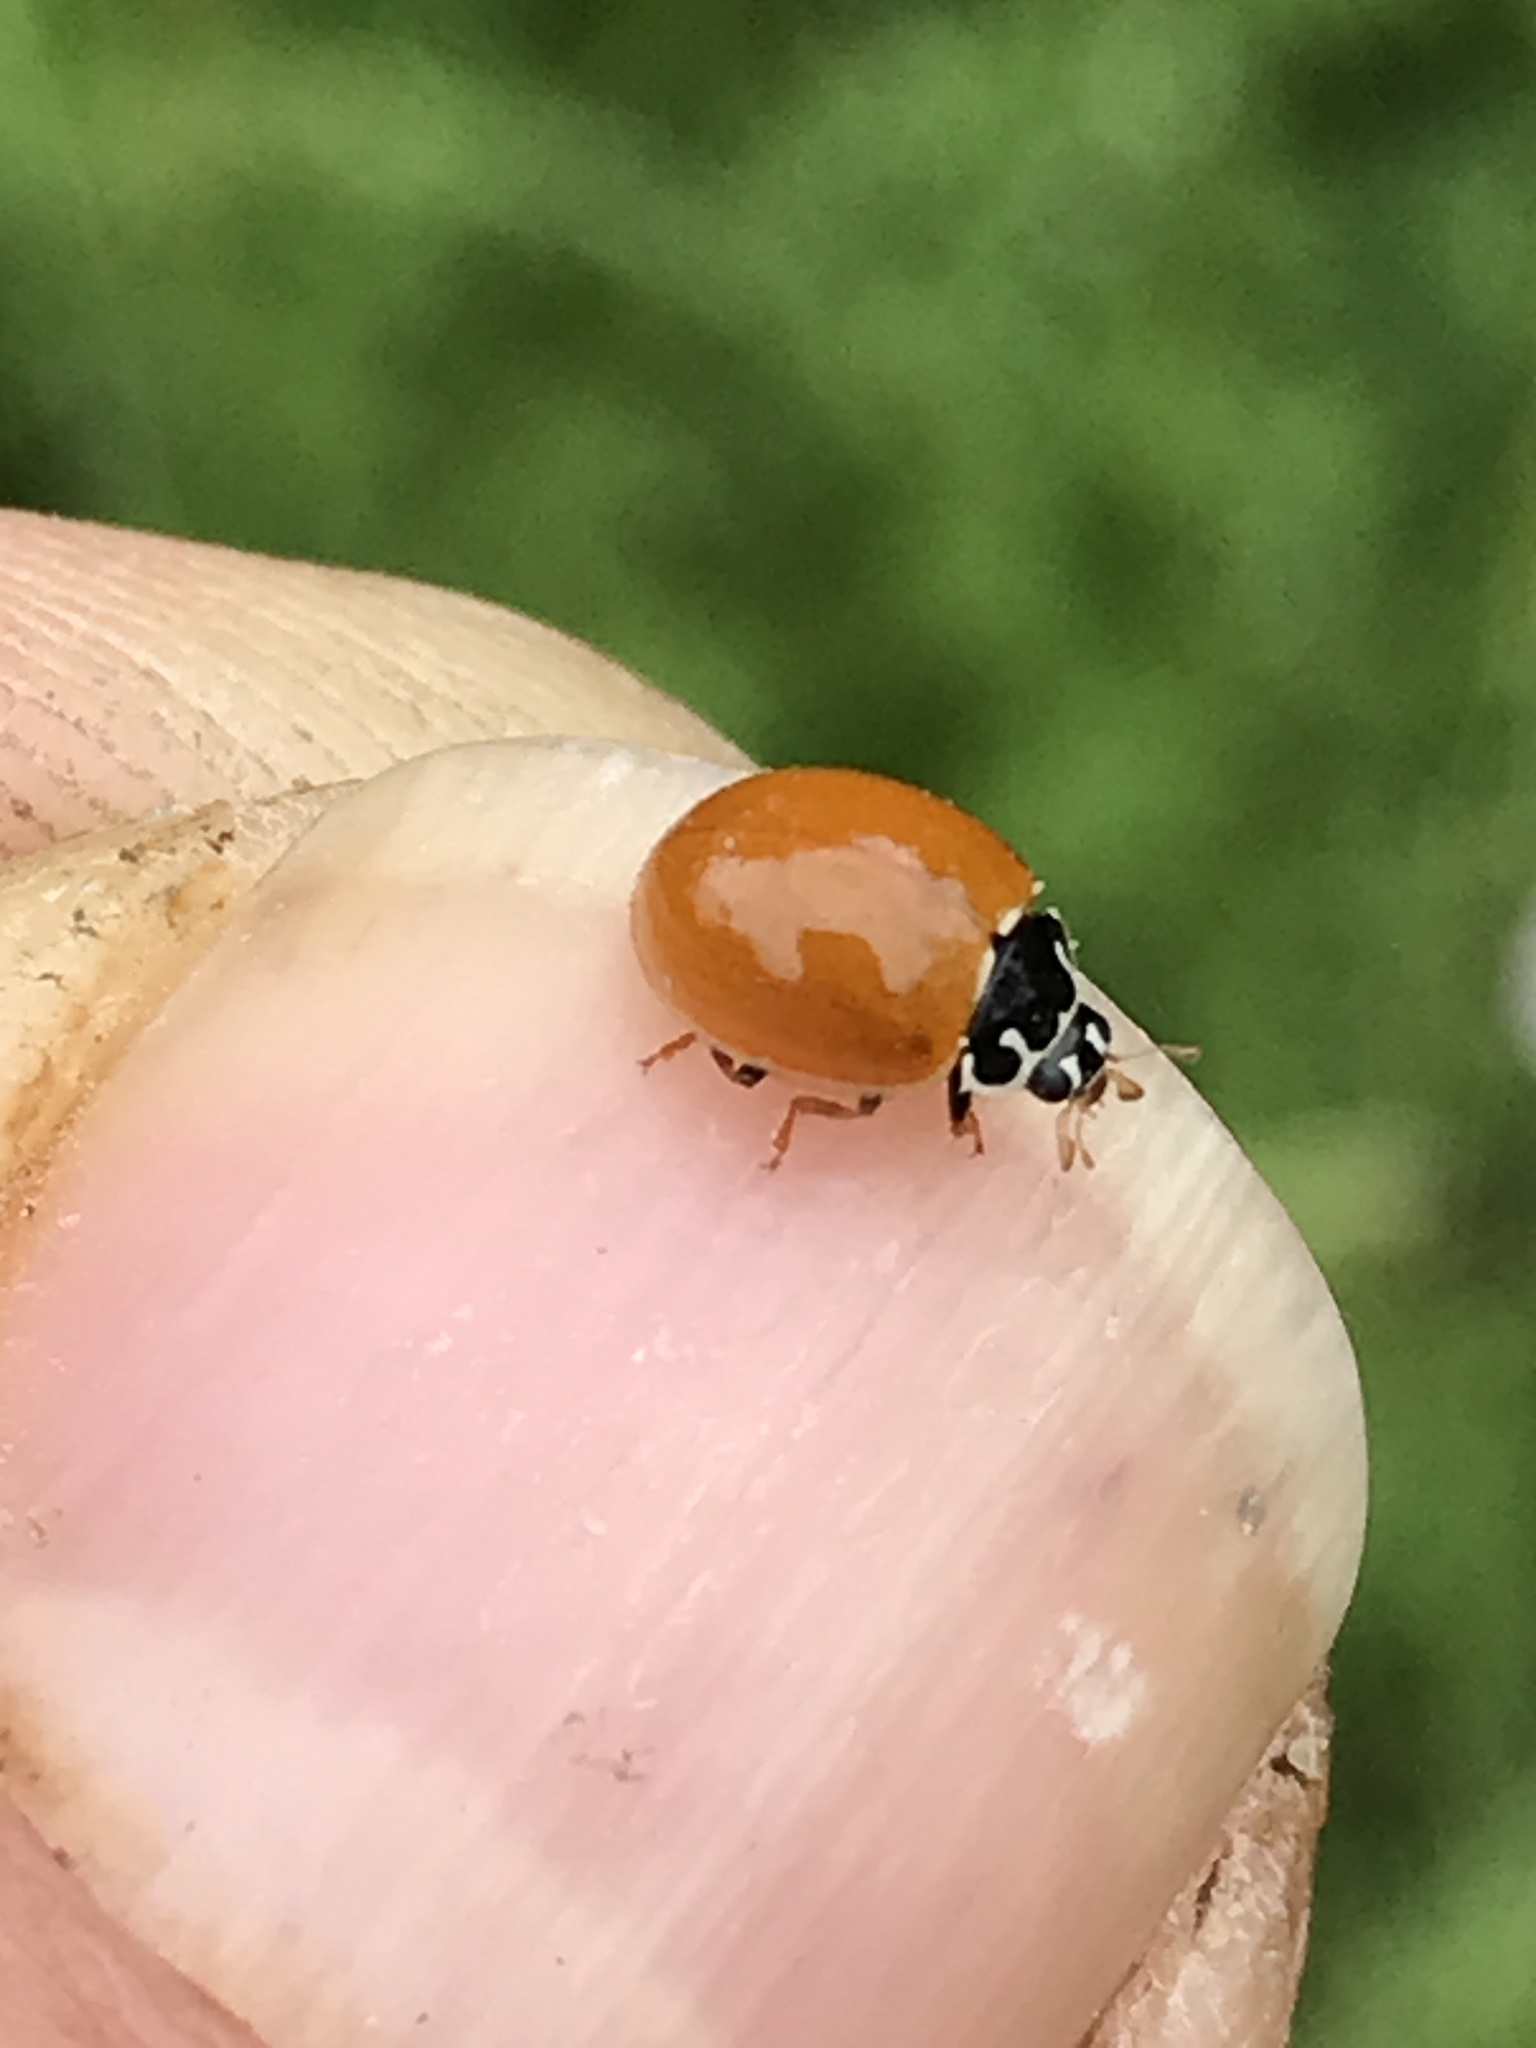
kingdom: Animalia
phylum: Arthropoda
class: Insecta
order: Coleoptera
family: Coccinellidae
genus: Cycloneda
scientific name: Cycloneda munda
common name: Polished lady beetle
